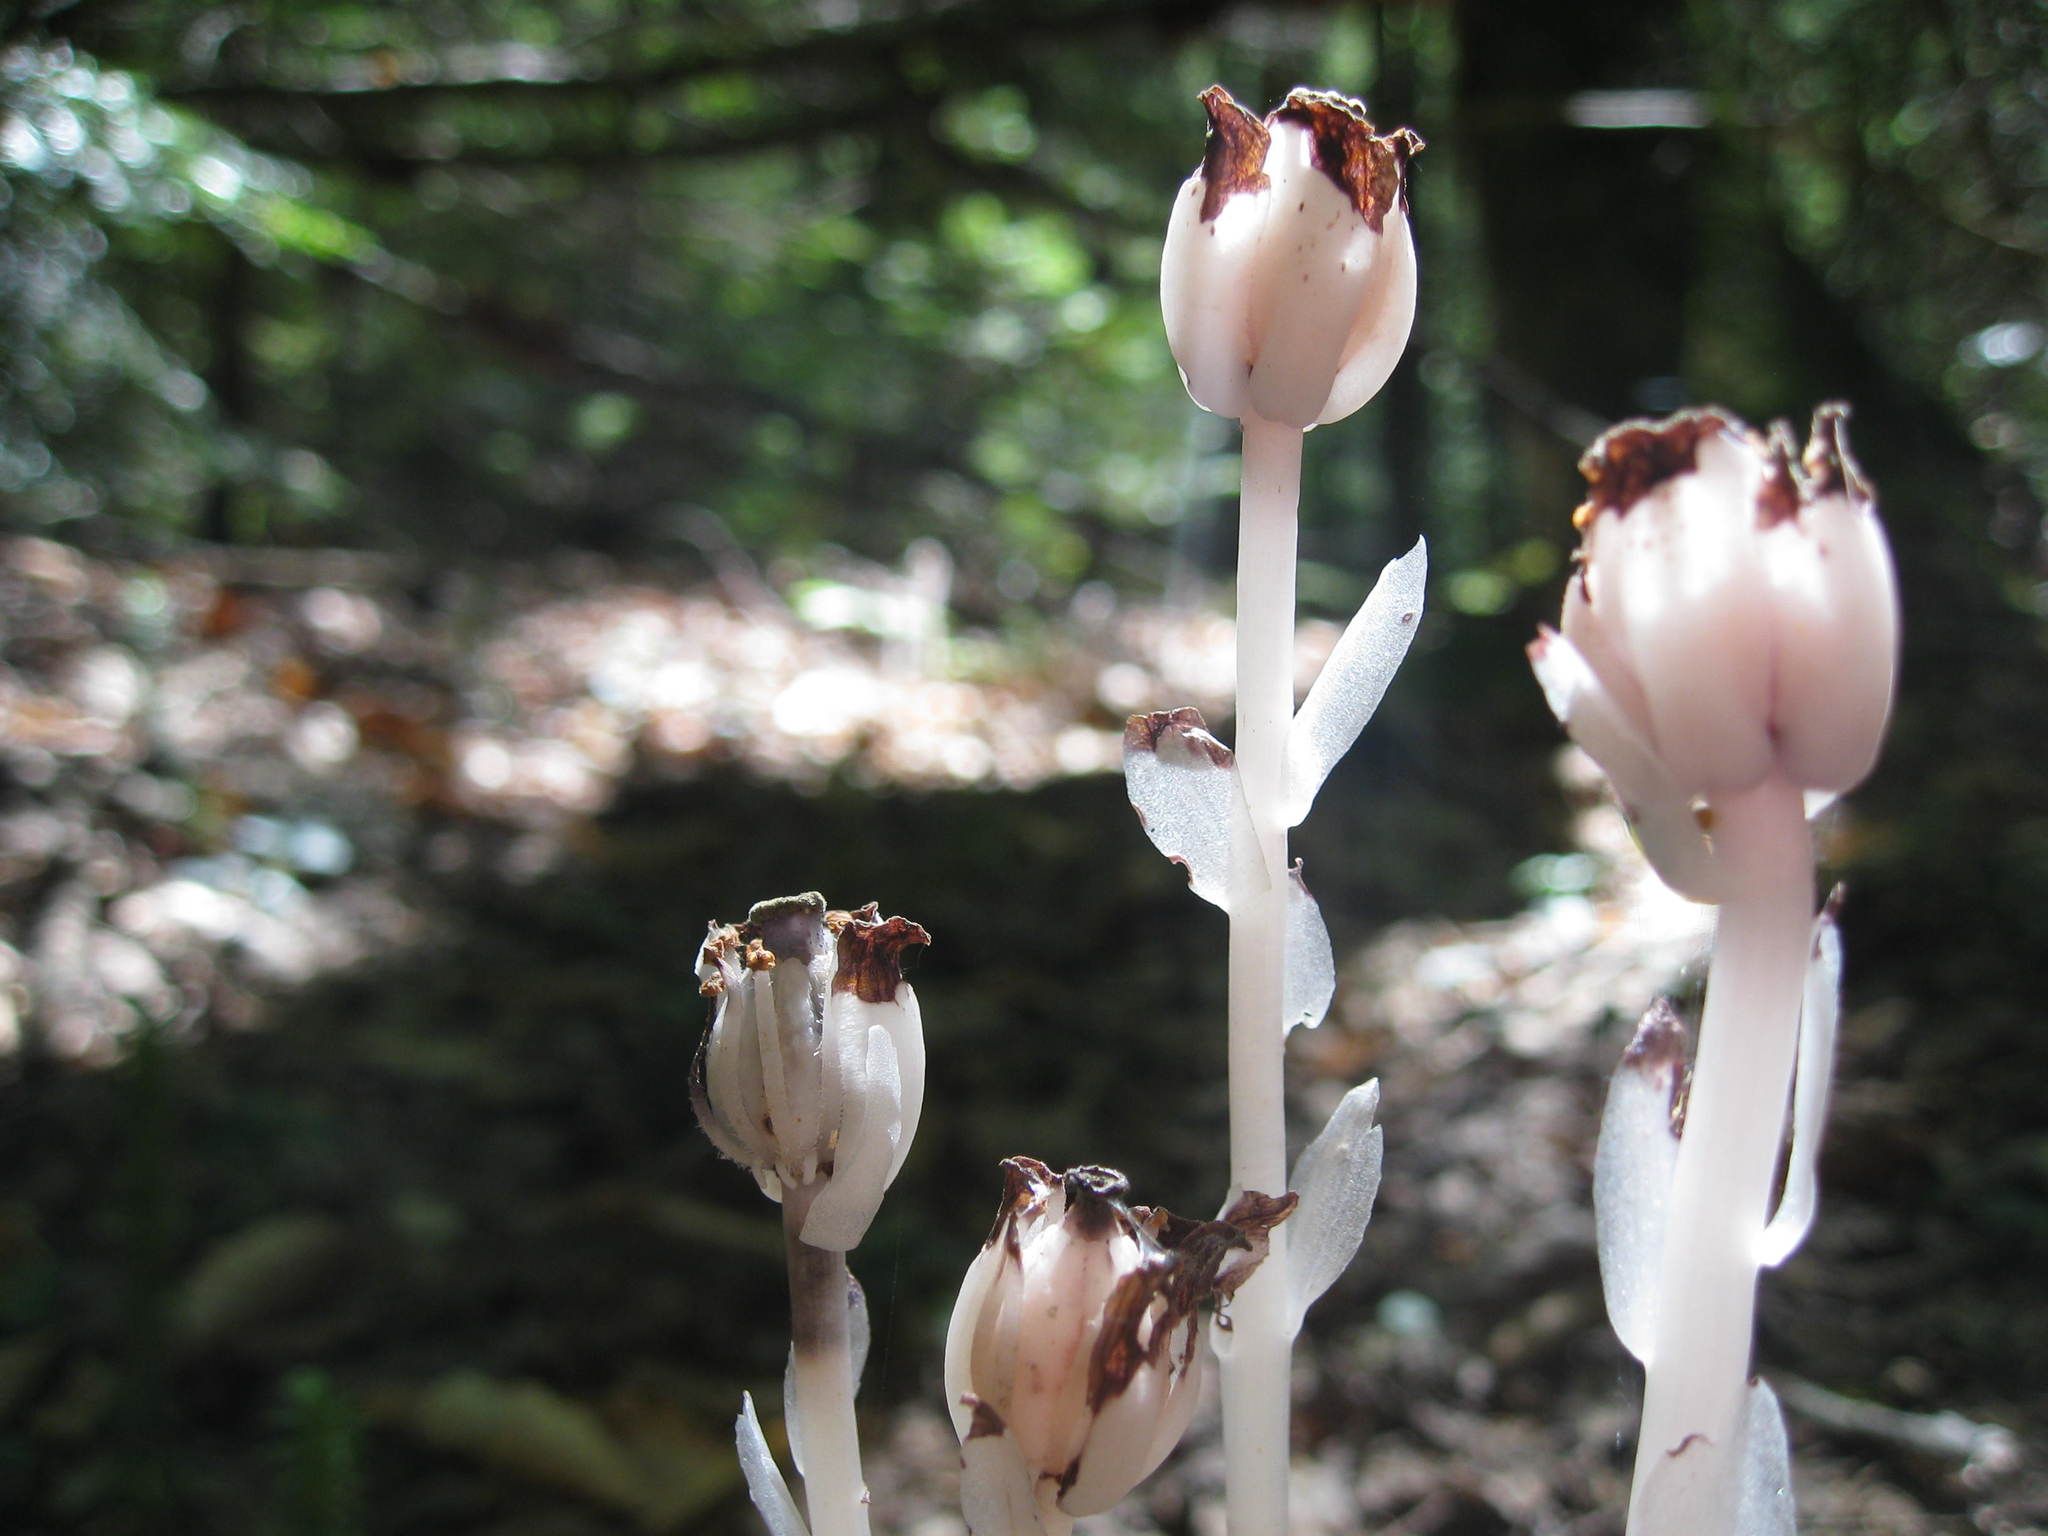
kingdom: Plantae
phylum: Tracheophyta
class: Magnoliopsida
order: Ericales
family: Ericaceae
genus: Monotropa
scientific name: Monotropa uniflora
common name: Convulsion root
